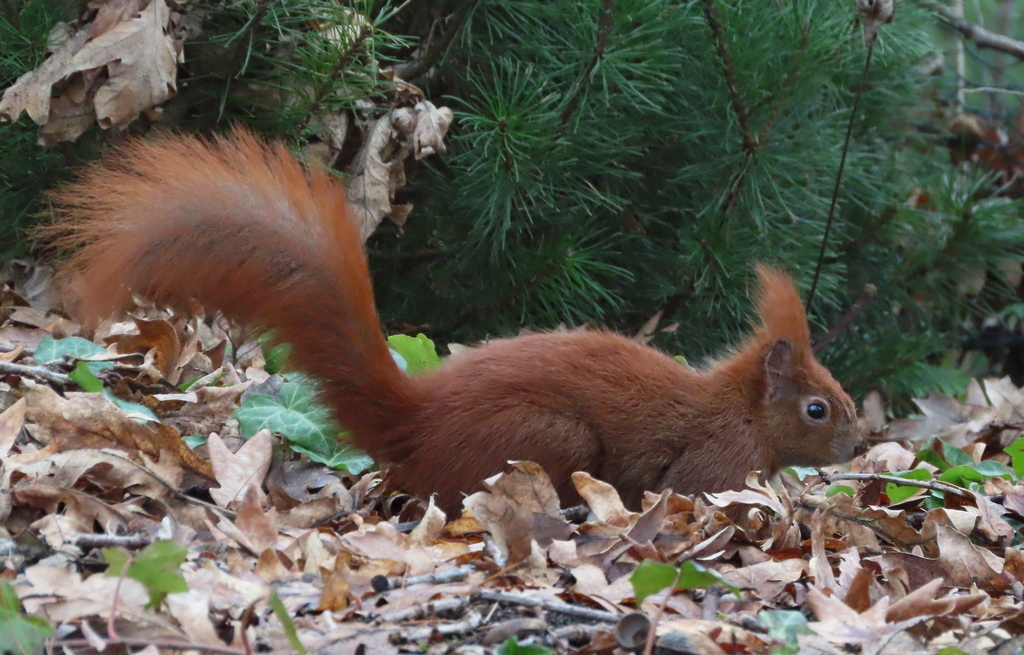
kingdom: Animalia
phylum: Chordata
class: Mammalia
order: Rodentia
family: Sciuridae
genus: Sciurus
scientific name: Sciurus vulgaris
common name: Eurasian red squirrel
